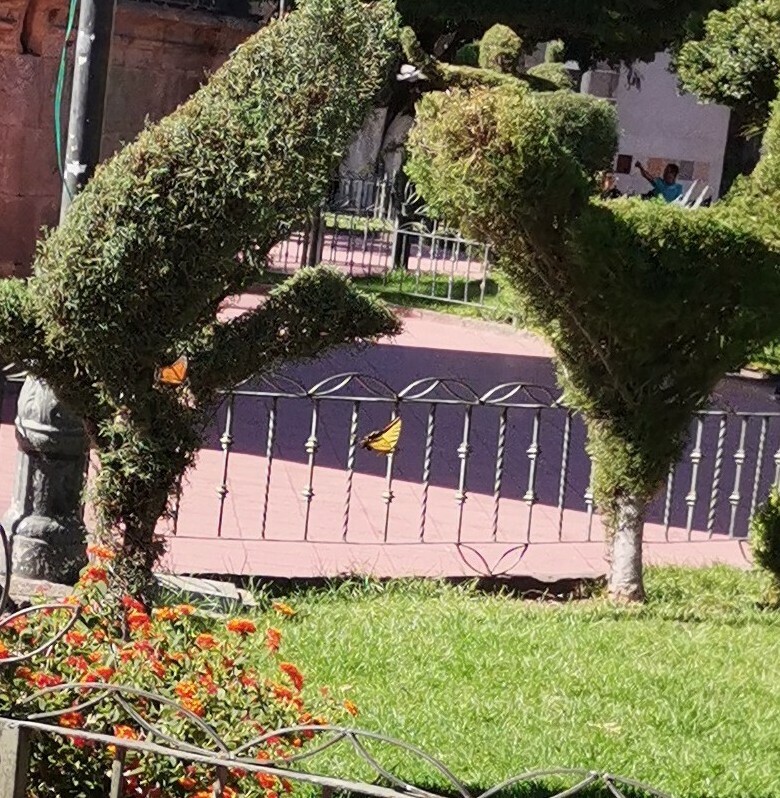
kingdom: Animalia
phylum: Arthropoda
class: Insecta
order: Lepidoptera
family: Papilionidae
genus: Papilio
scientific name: Papilio multicaudata
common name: Two-tailed tiger swallowtail
